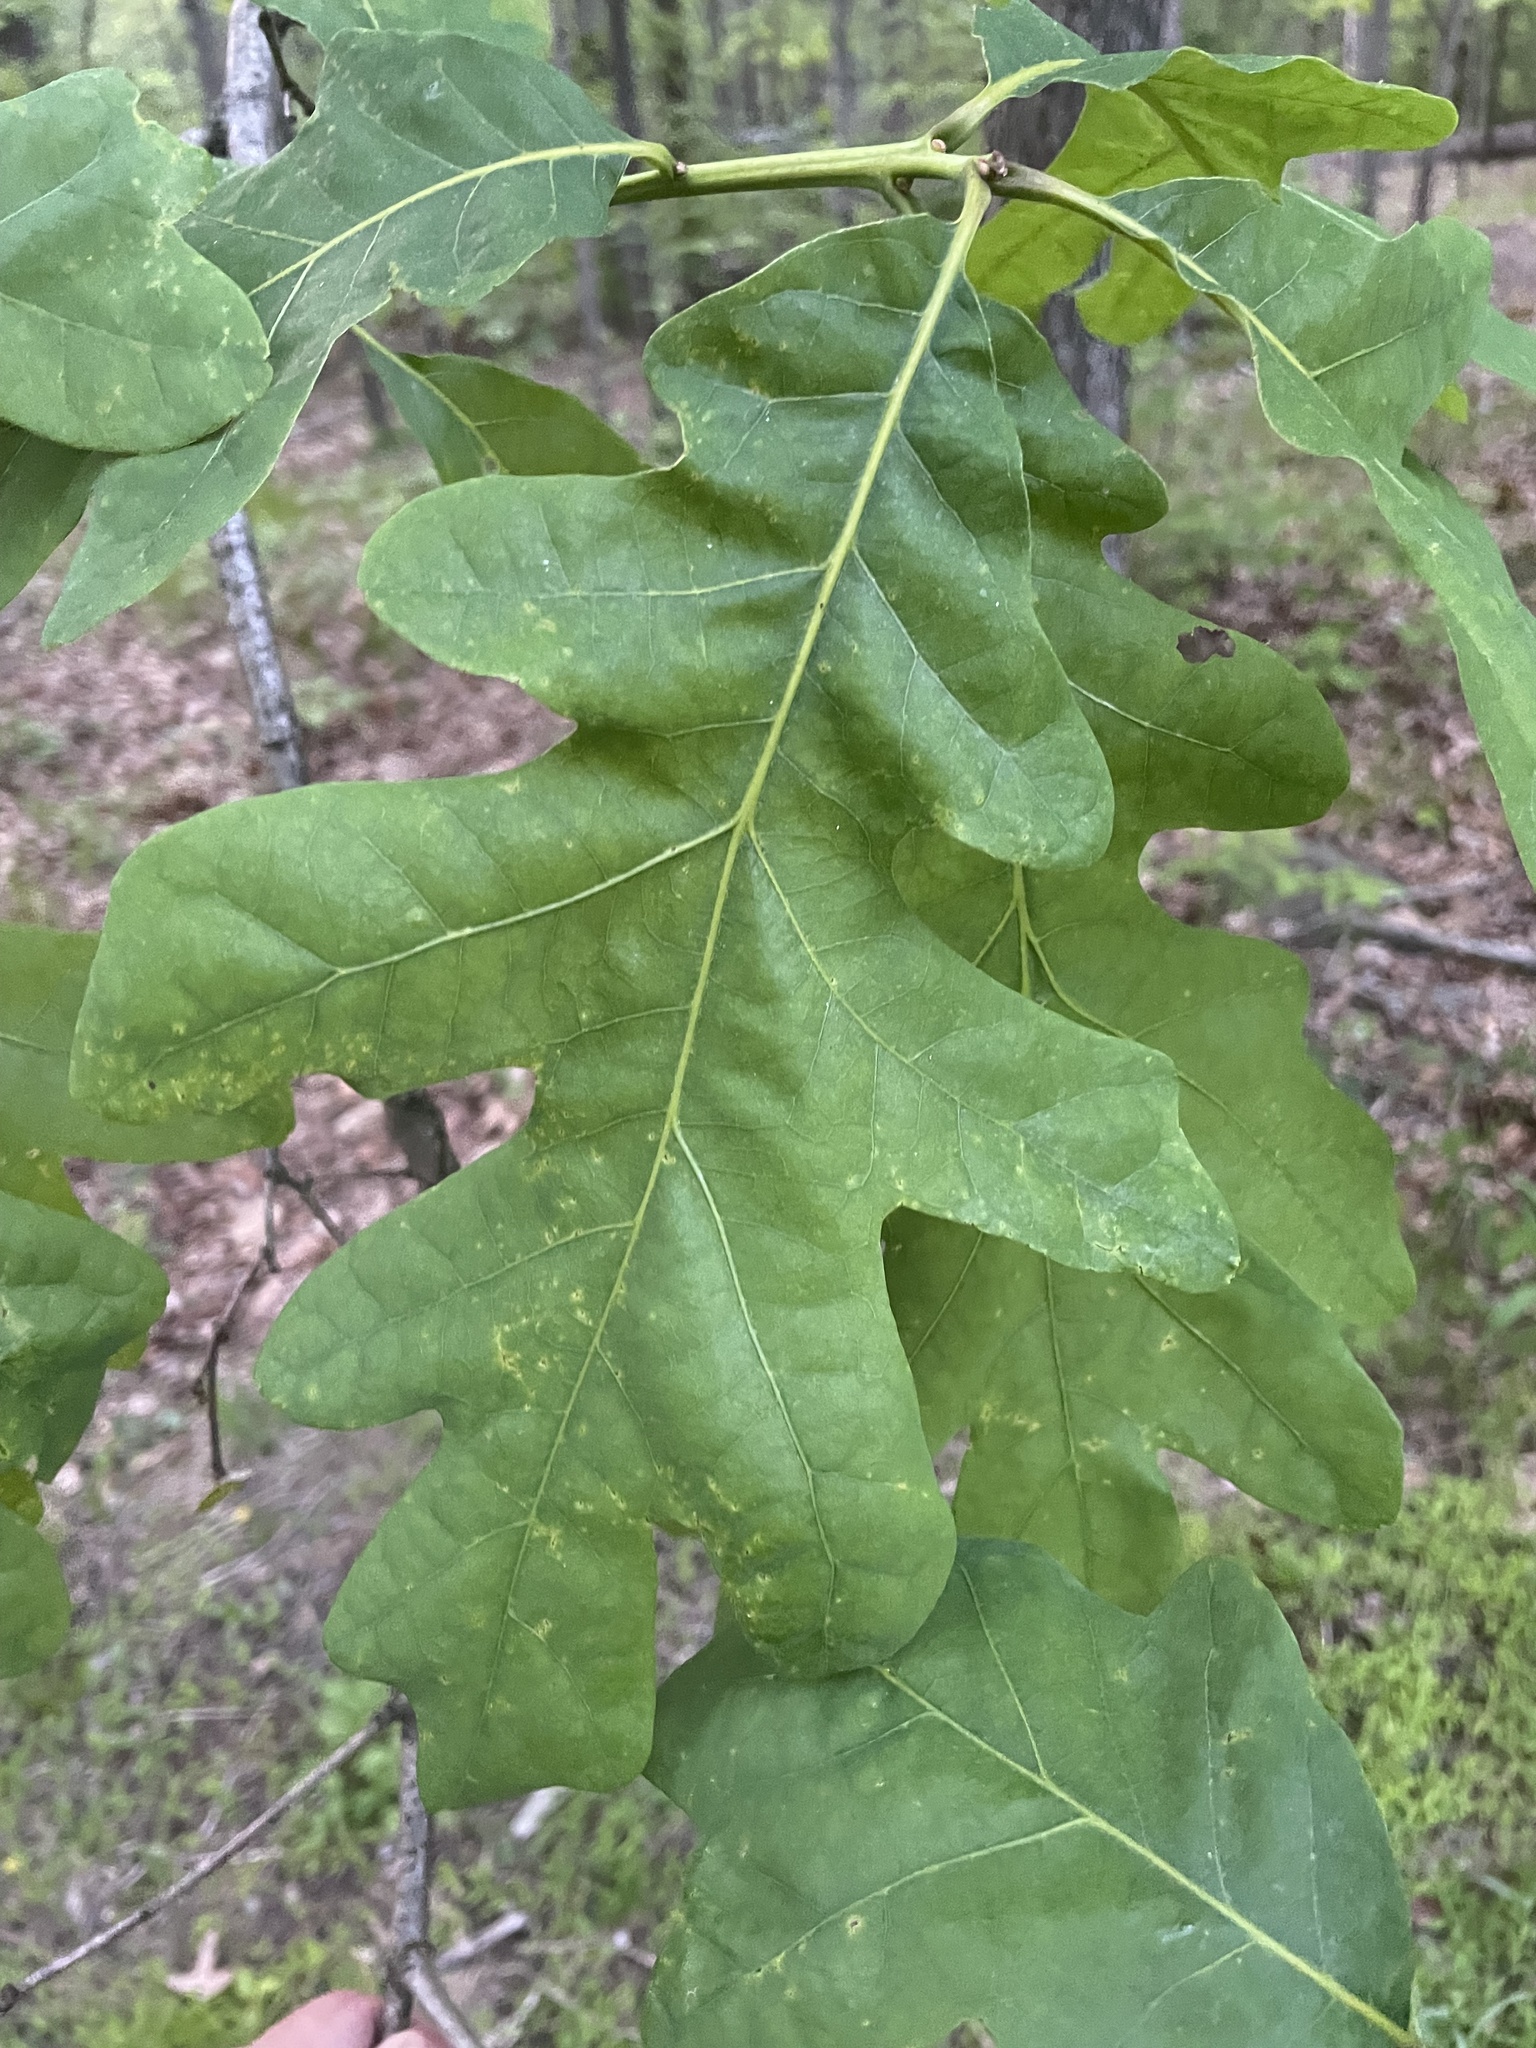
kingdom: Plantae
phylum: Tracheophyta
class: Magnoliopsida
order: Fagales
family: Fagaceae
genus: Quercus
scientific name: Quercus alba
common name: White oak
